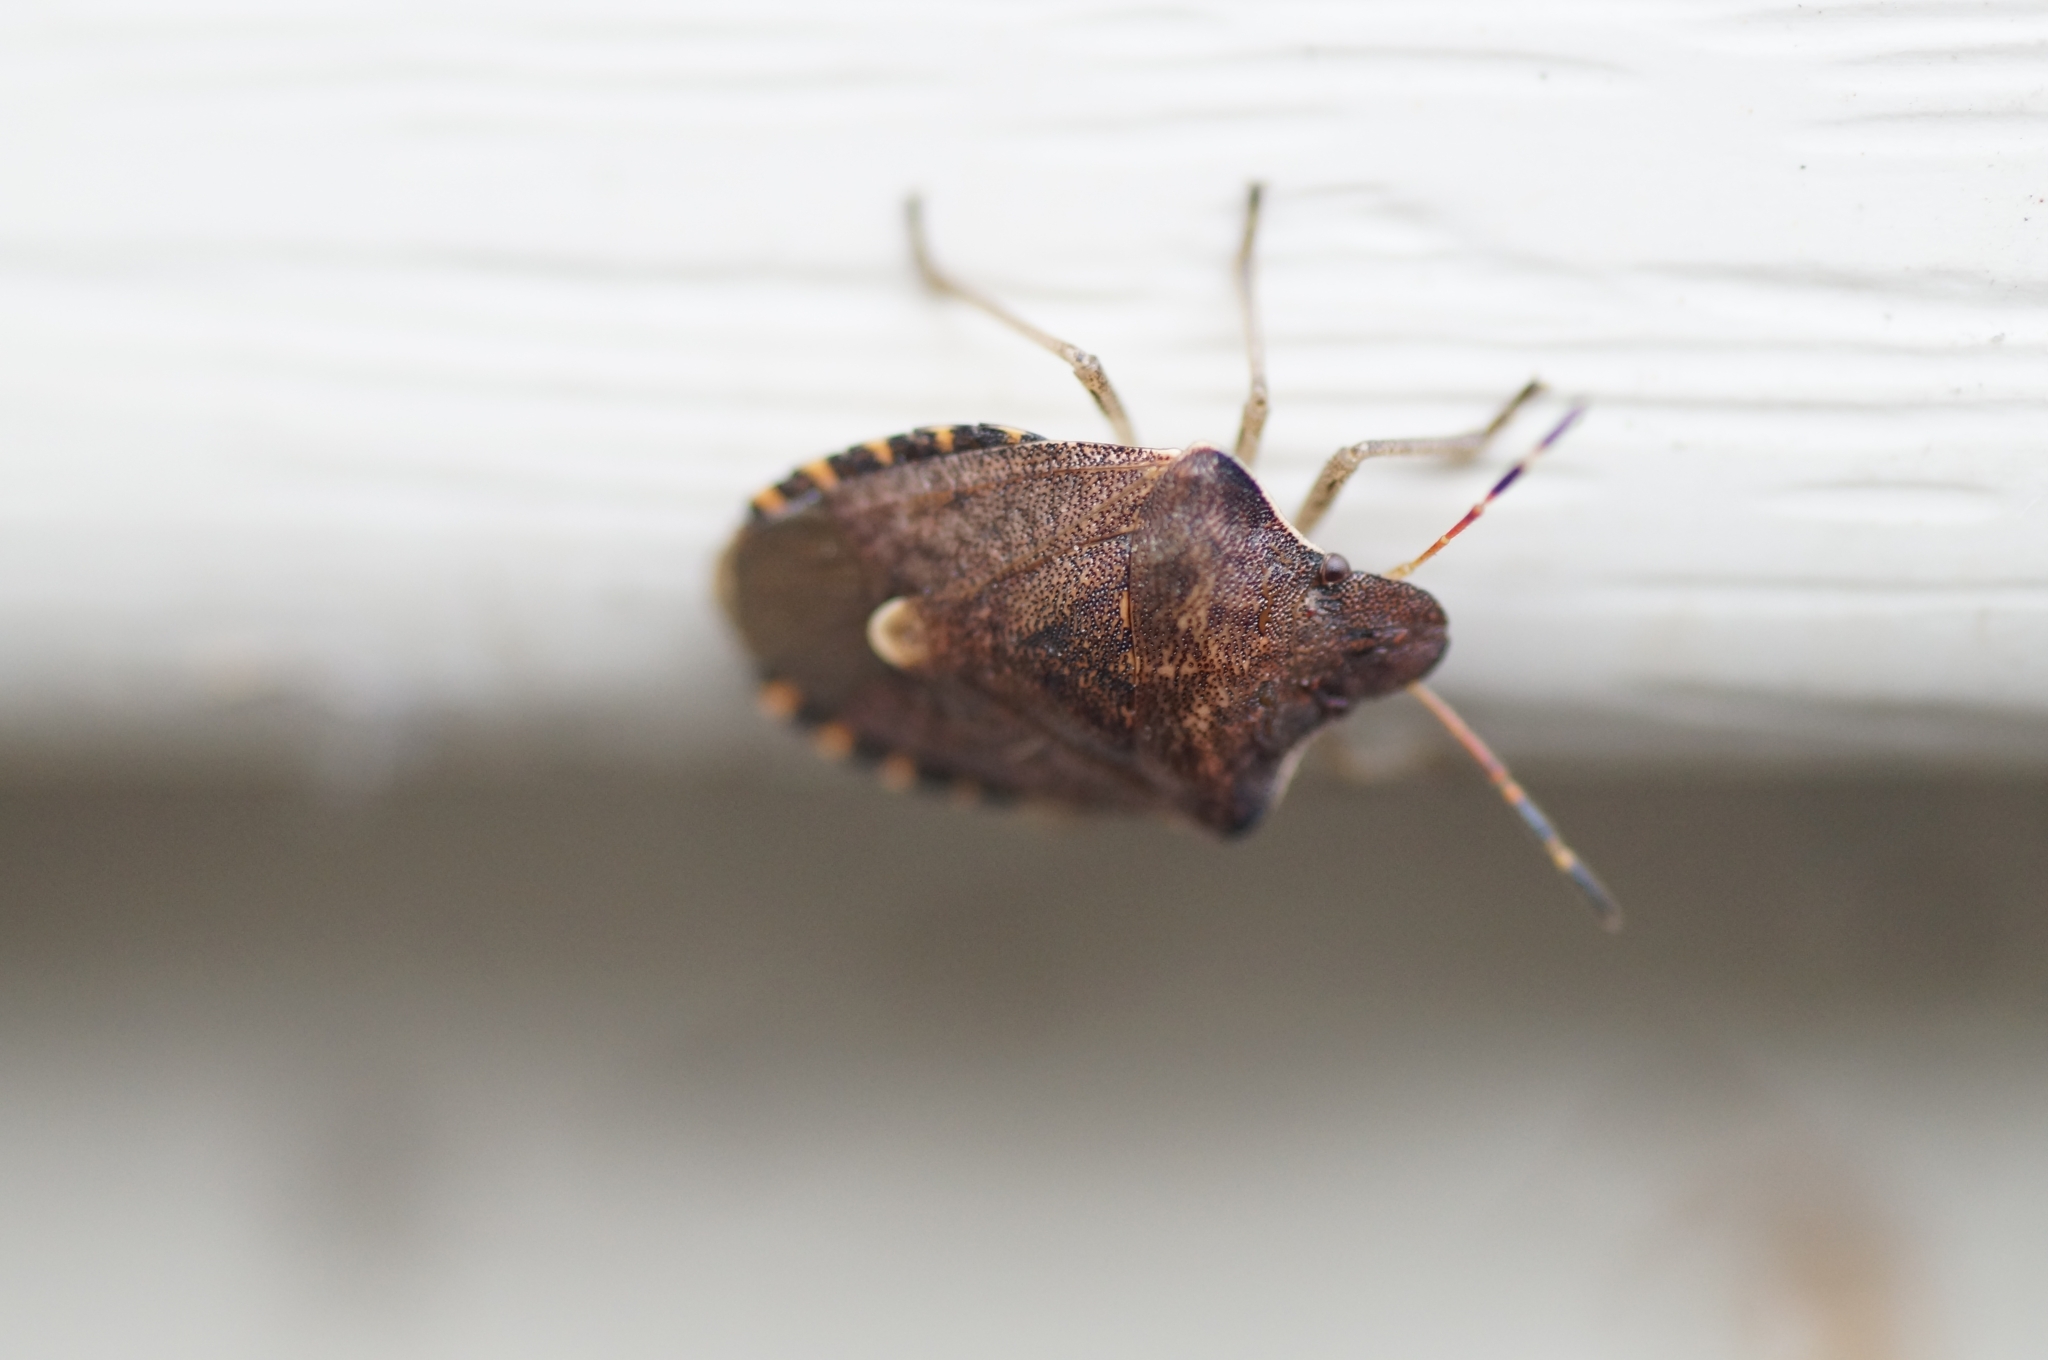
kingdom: Animalia
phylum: Arthropoda
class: Insecta
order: Hemiptera
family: Pentatomidae
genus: Holcostethus
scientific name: Holcostethus strictus
